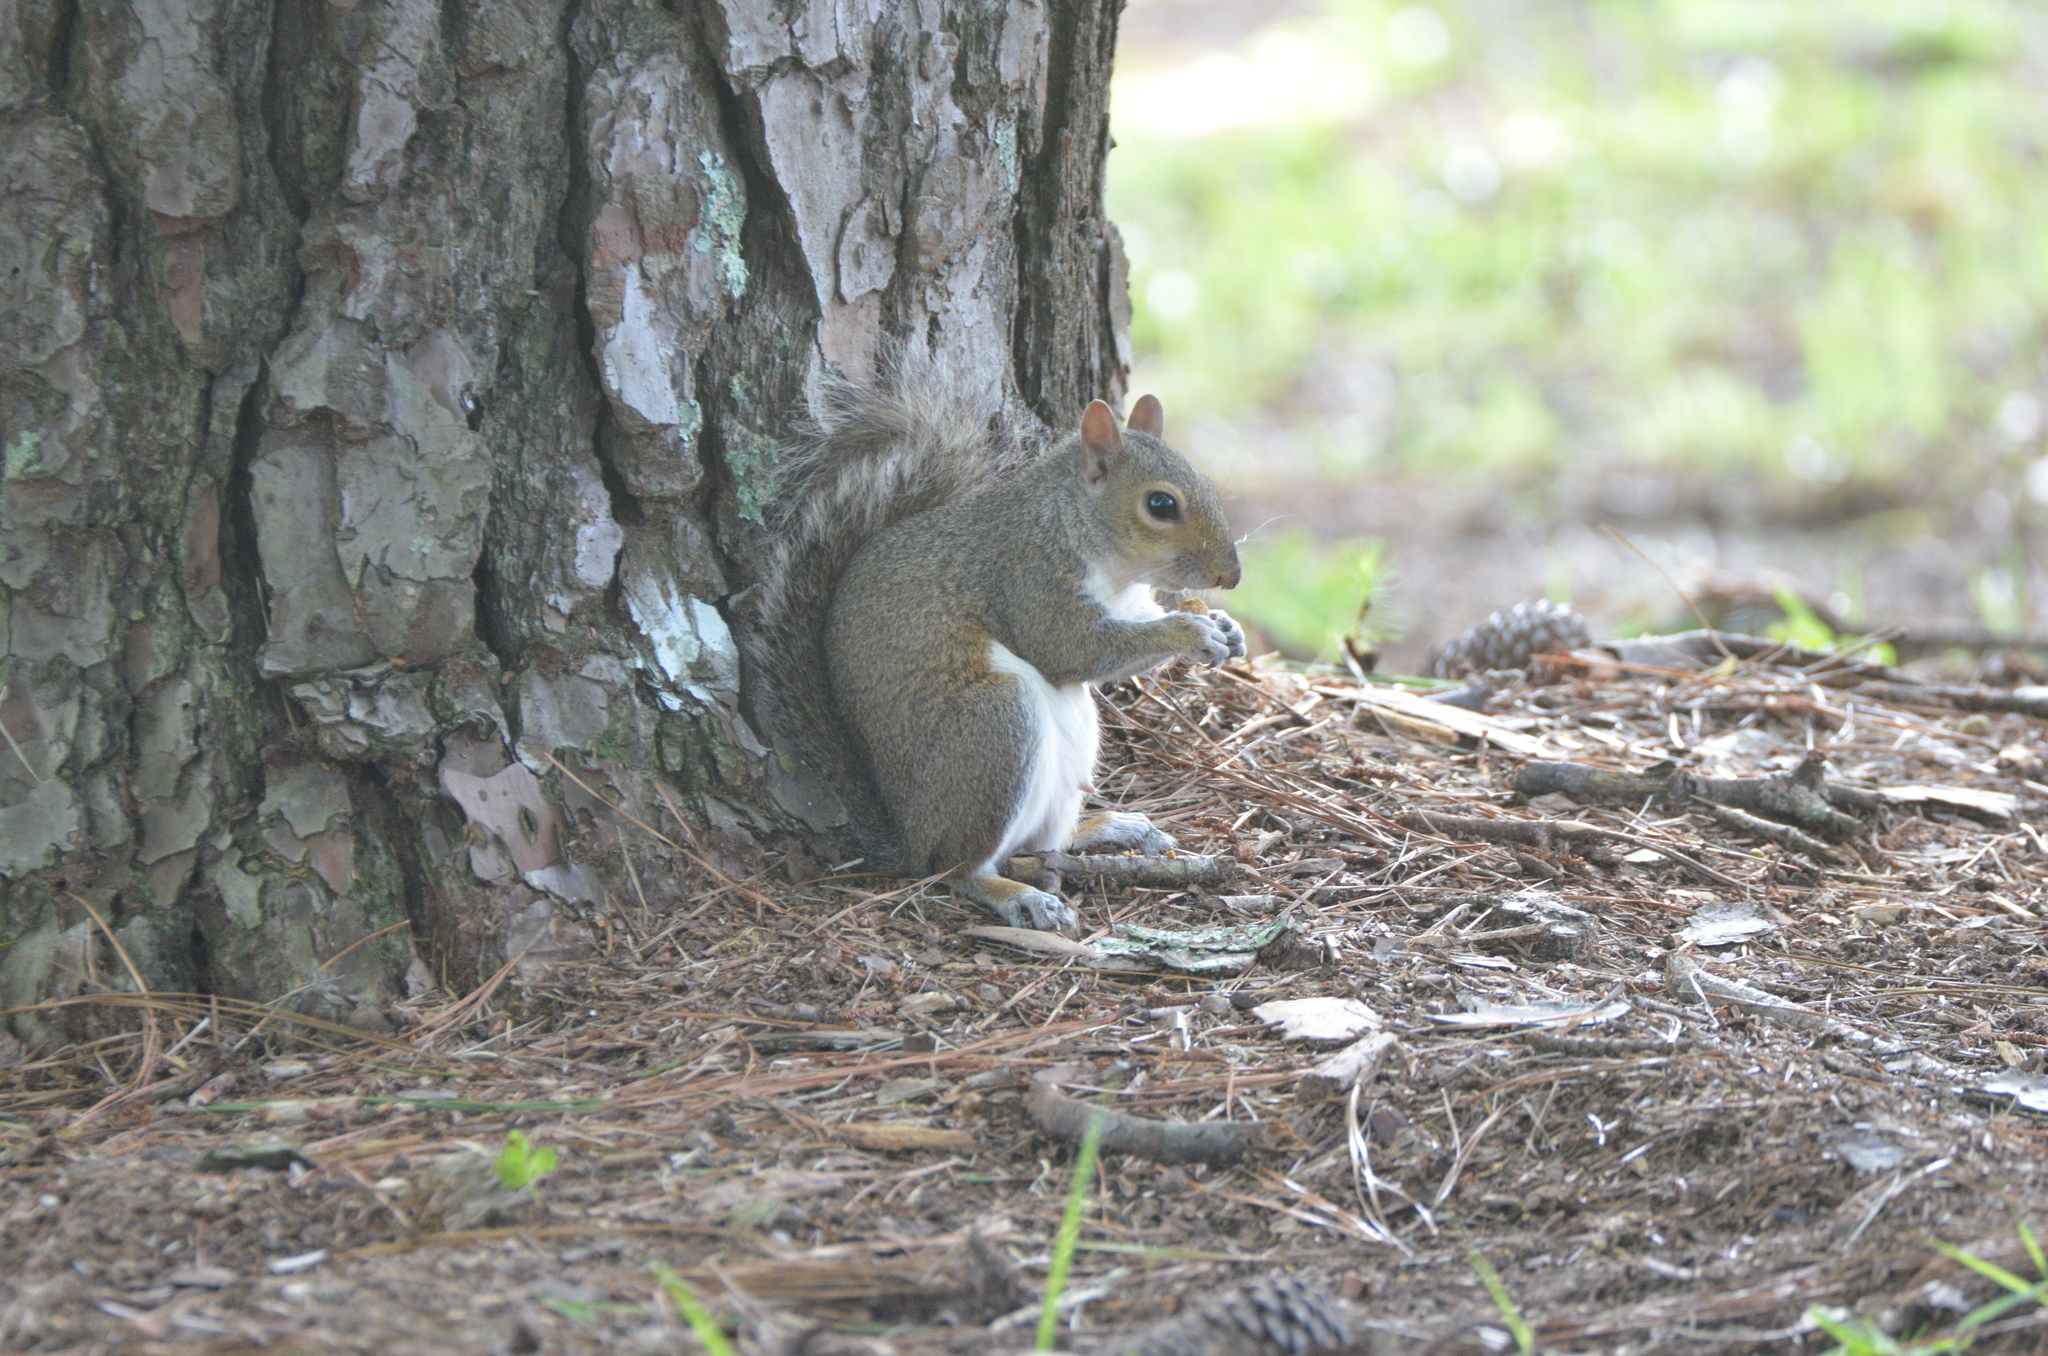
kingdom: Animalia
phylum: Chordata
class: Mammalia
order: Rodentia
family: Sciuridae
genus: Sciurus
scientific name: Sciurus carolinensis
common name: Eastern gray squirrel
